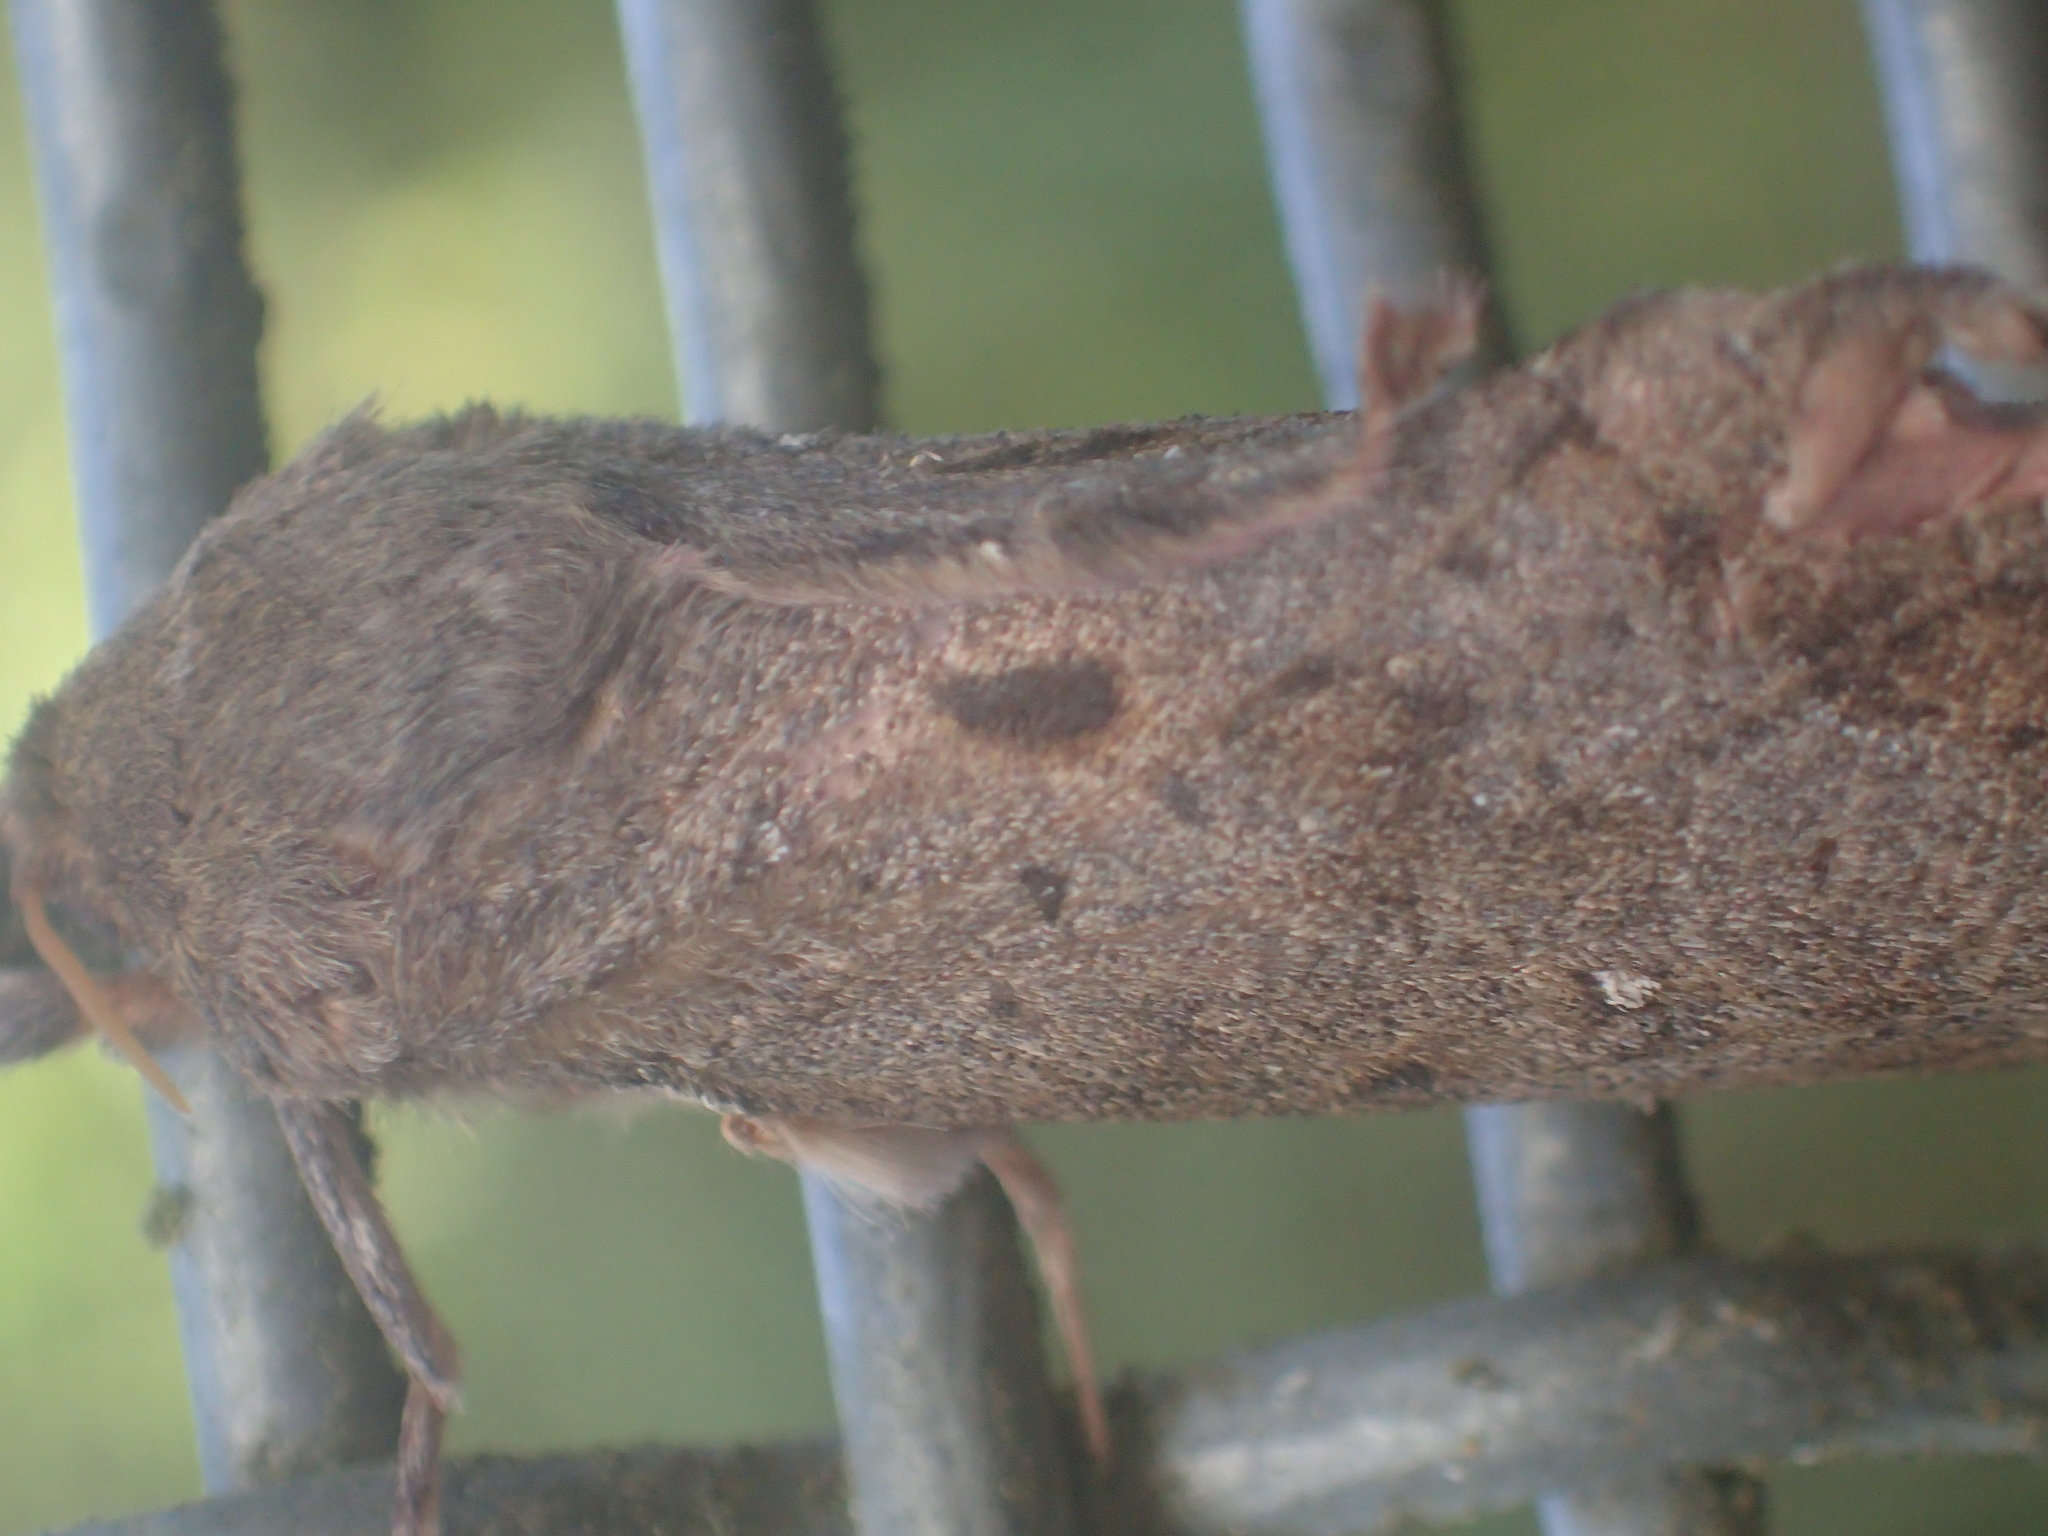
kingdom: Animalia
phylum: Arthropoda
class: Insecta
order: Lepidoptera
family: Hepialidae
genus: Dumbletonius
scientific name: Dumbletonius unimaculata
